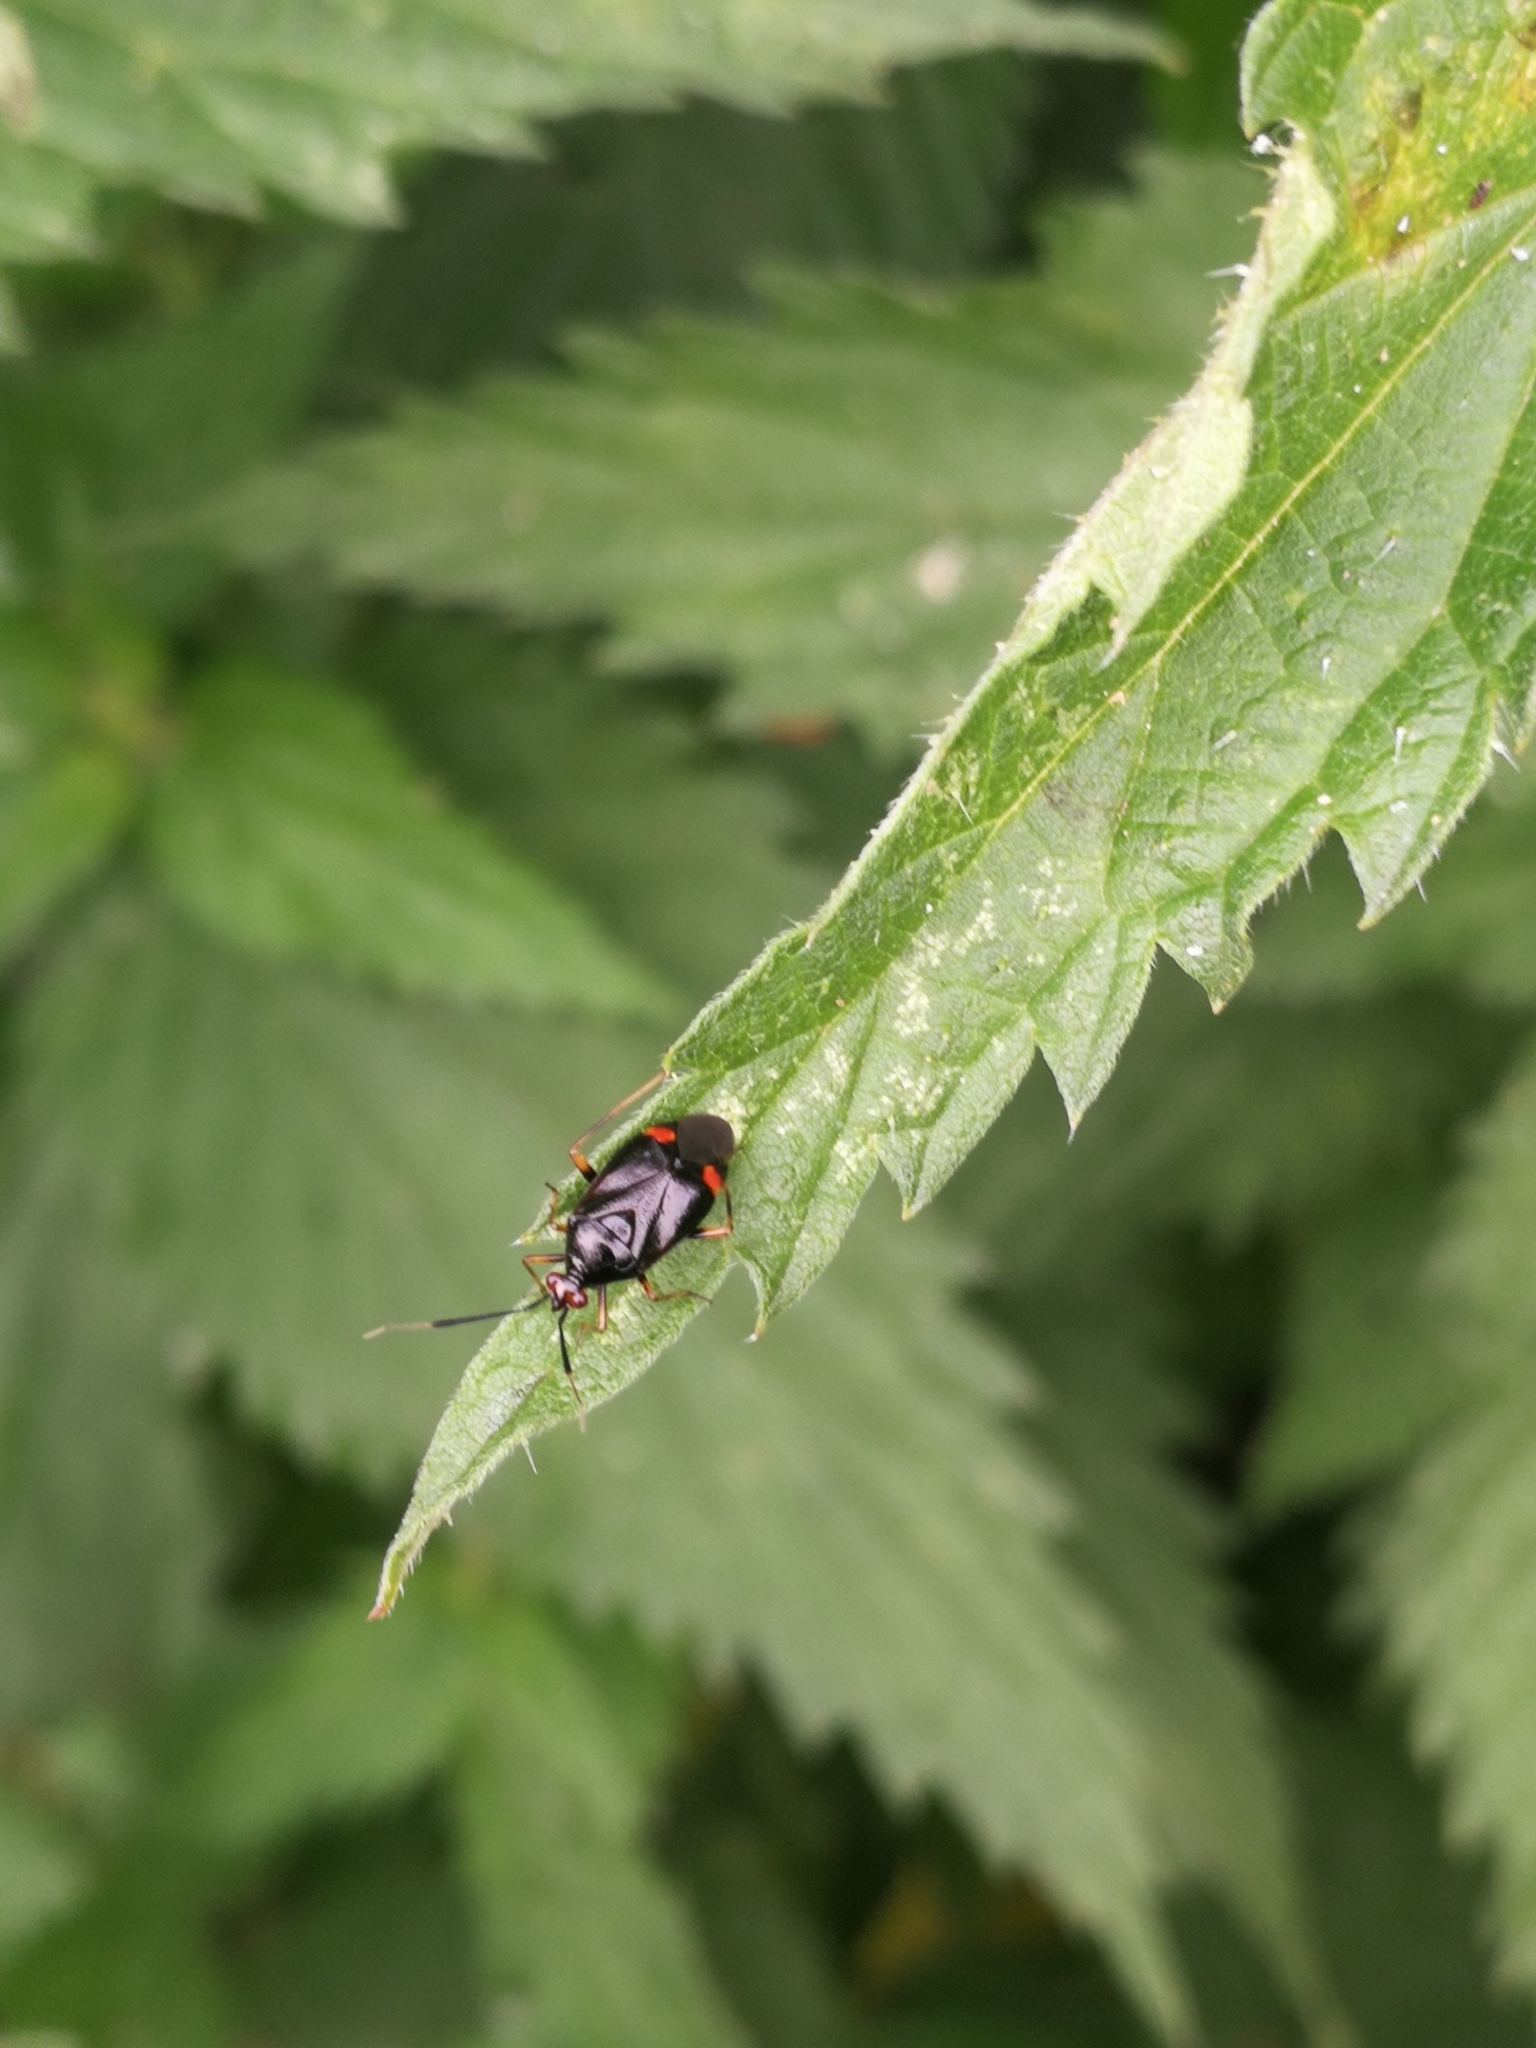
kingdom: Animalia
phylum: Arthropoda
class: Insecta
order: Hemiptera
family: Miridae
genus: Deraeocoris
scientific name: Deraeocoris ruber
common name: Plant bug
